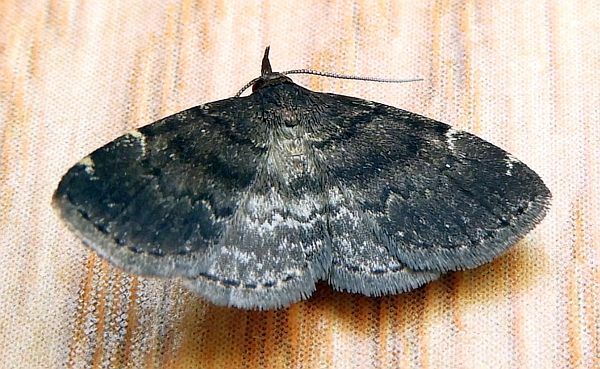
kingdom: Animalia
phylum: Arthropoda
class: Insecta
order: Lepidoptera
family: Erebidae
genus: Idia
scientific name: Idia forbesii
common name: Forbes' idia moth
